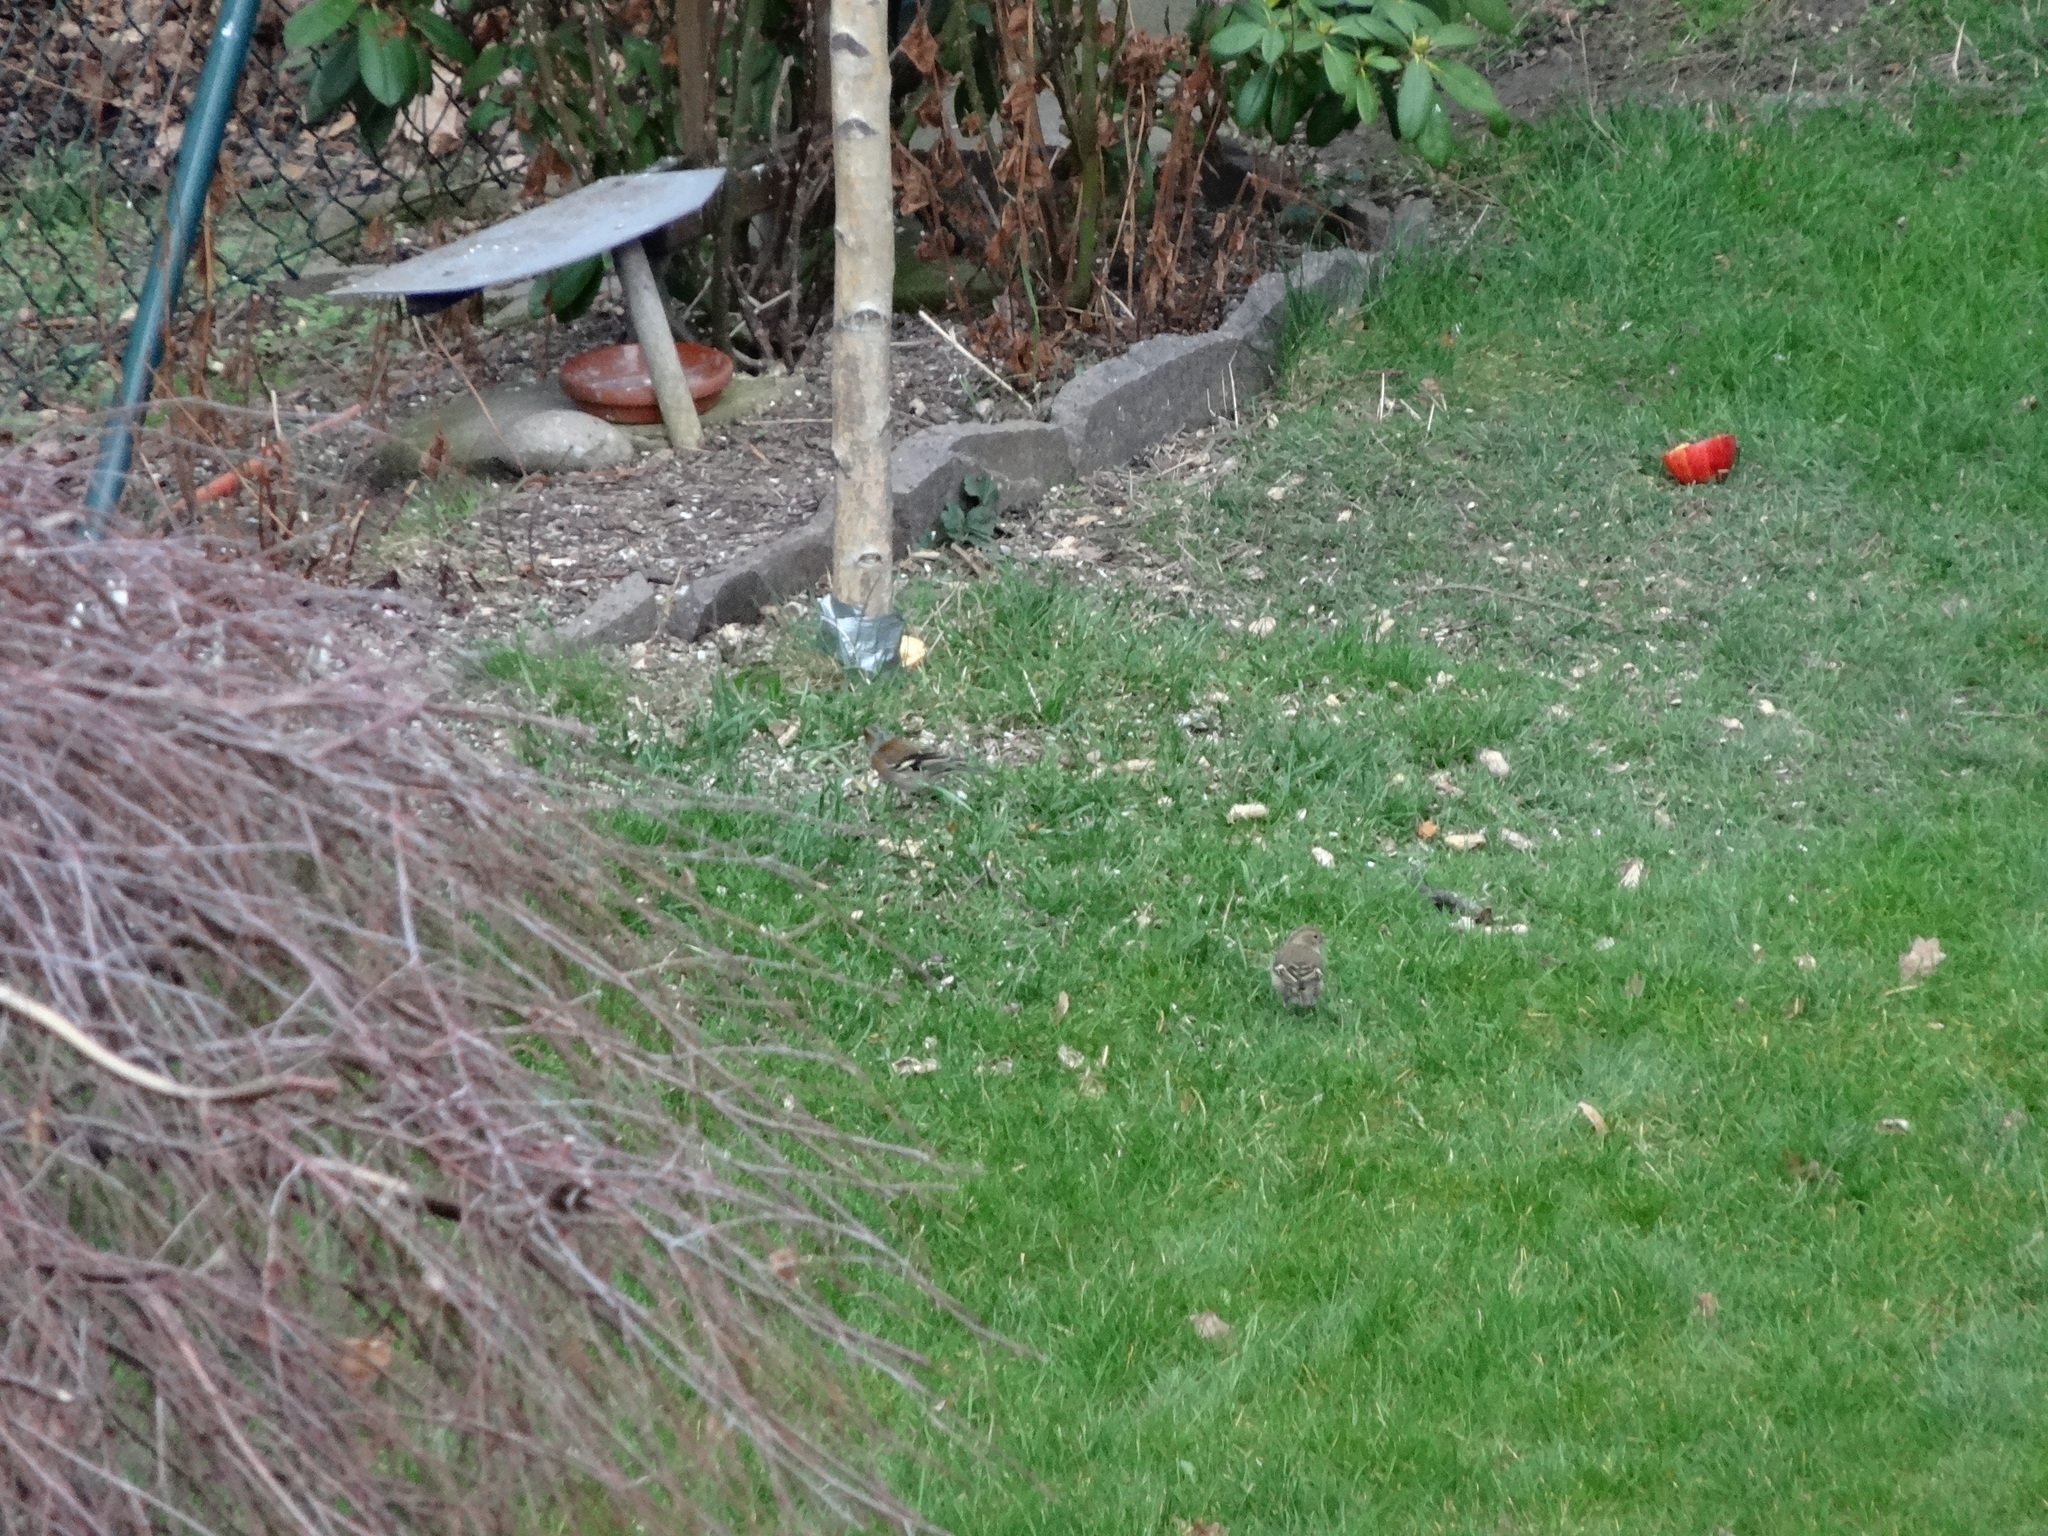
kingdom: Animalia
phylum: Chordata
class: Aves
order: Passeriformes
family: Fringillidae
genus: Fringilla
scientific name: Fringilla coelebs
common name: Common chaffinch
